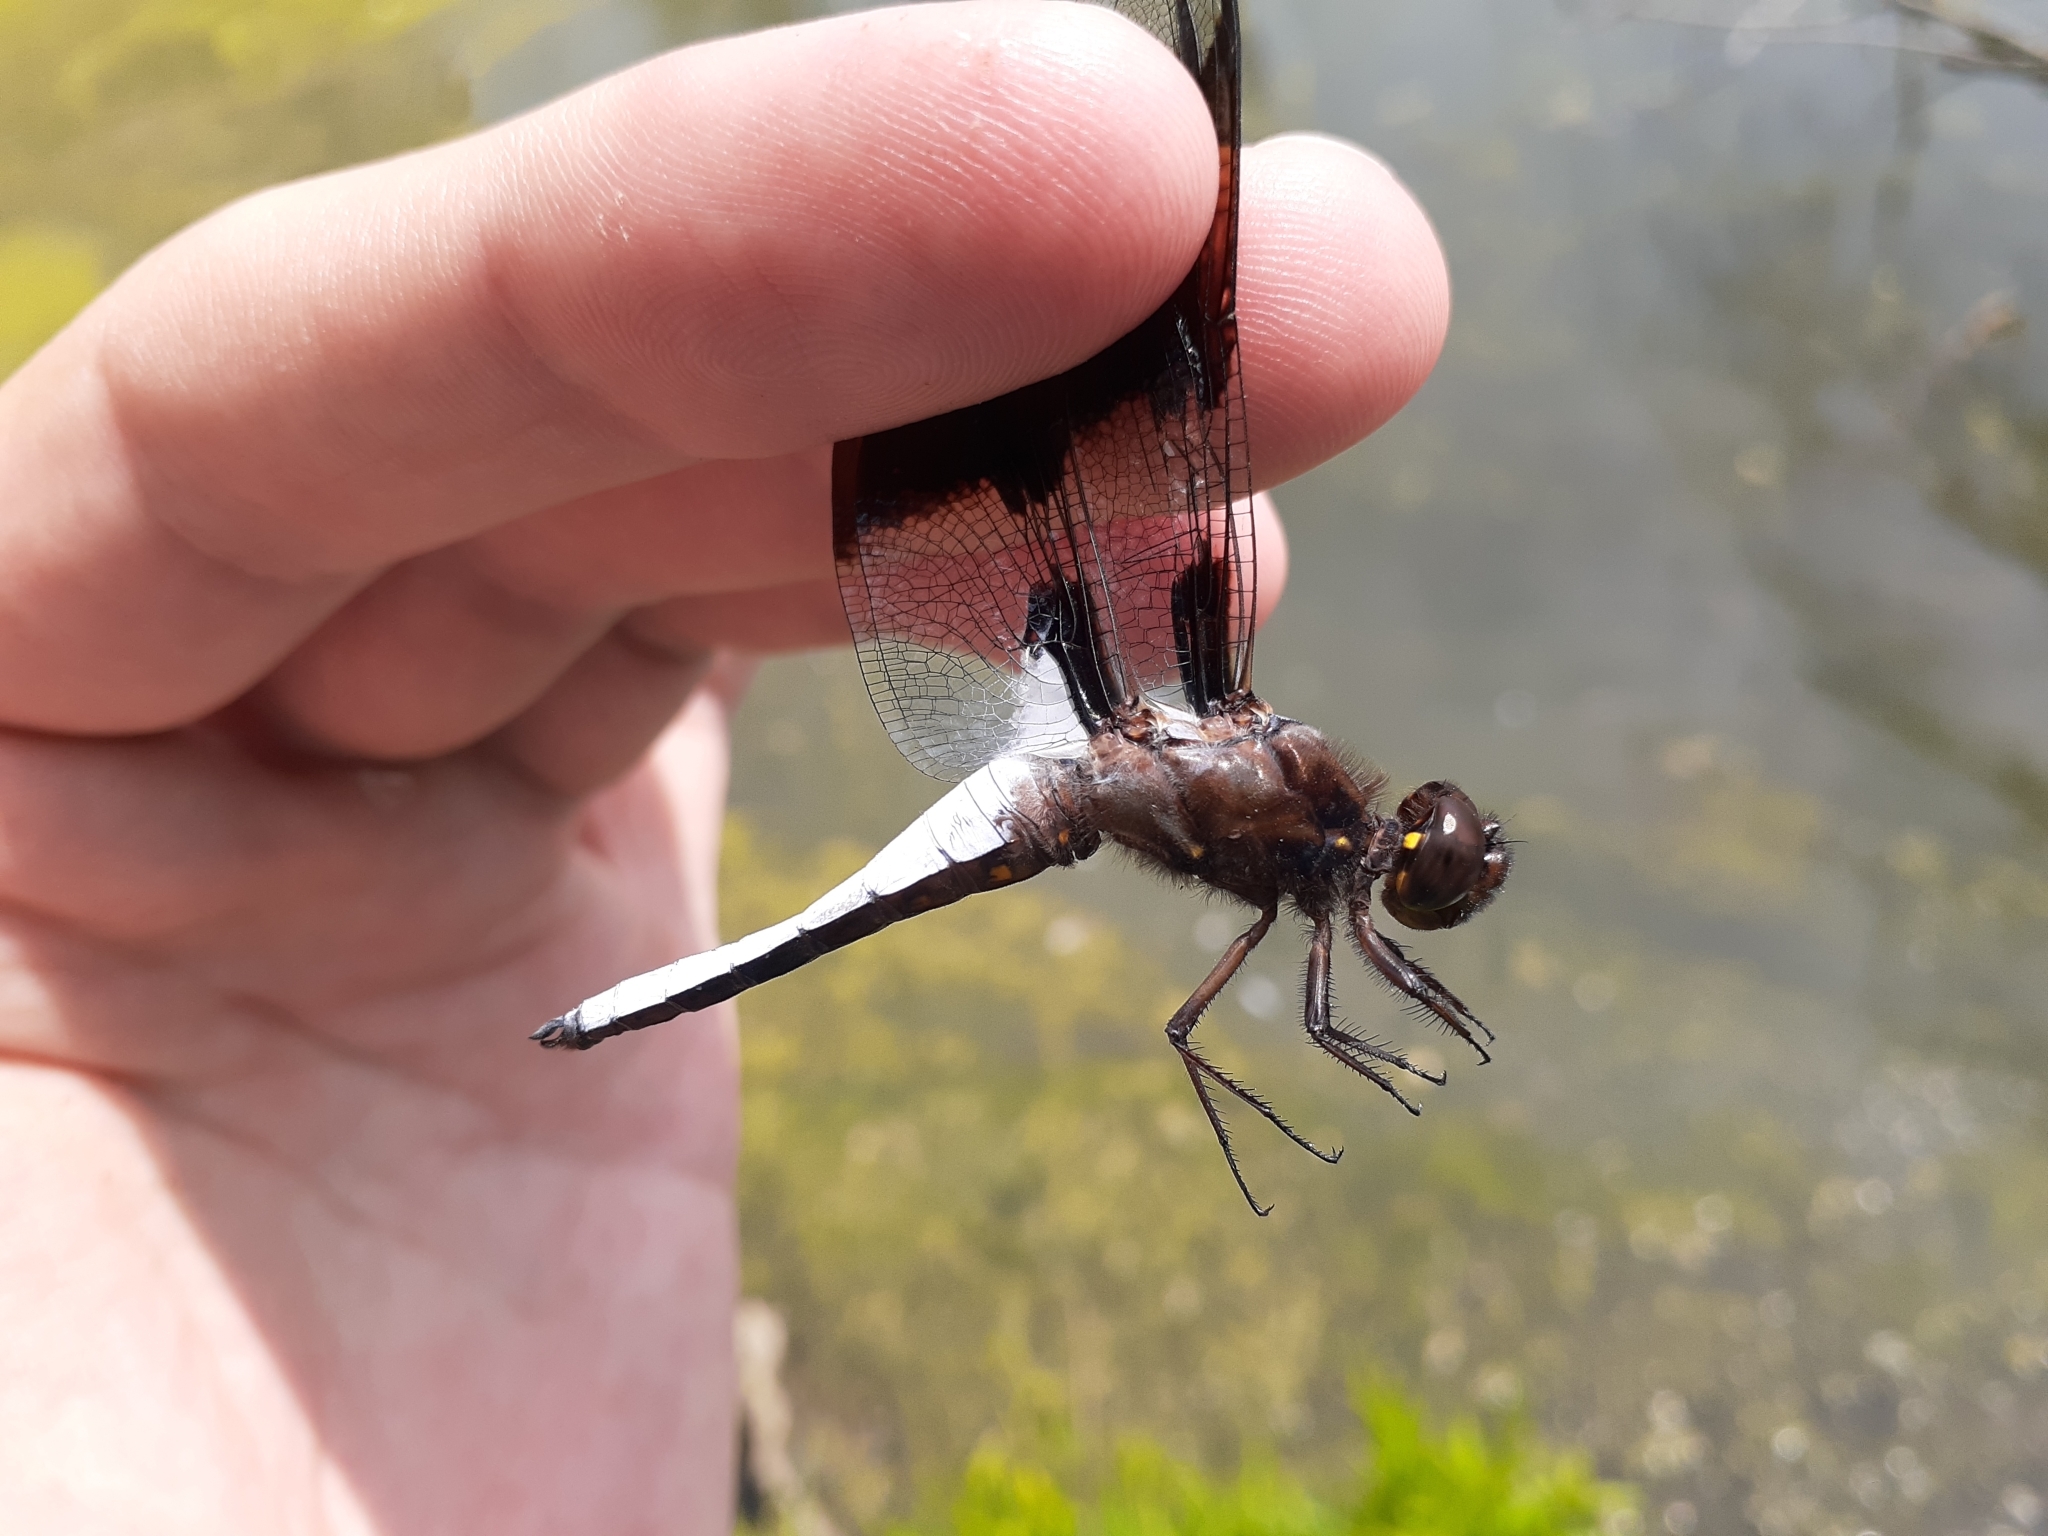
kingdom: Animalia
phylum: Arthropoda
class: Insecta
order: Odonata
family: Libellulidae
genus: Plathemis
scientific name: Plathemis lydia
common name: Common whitetail
